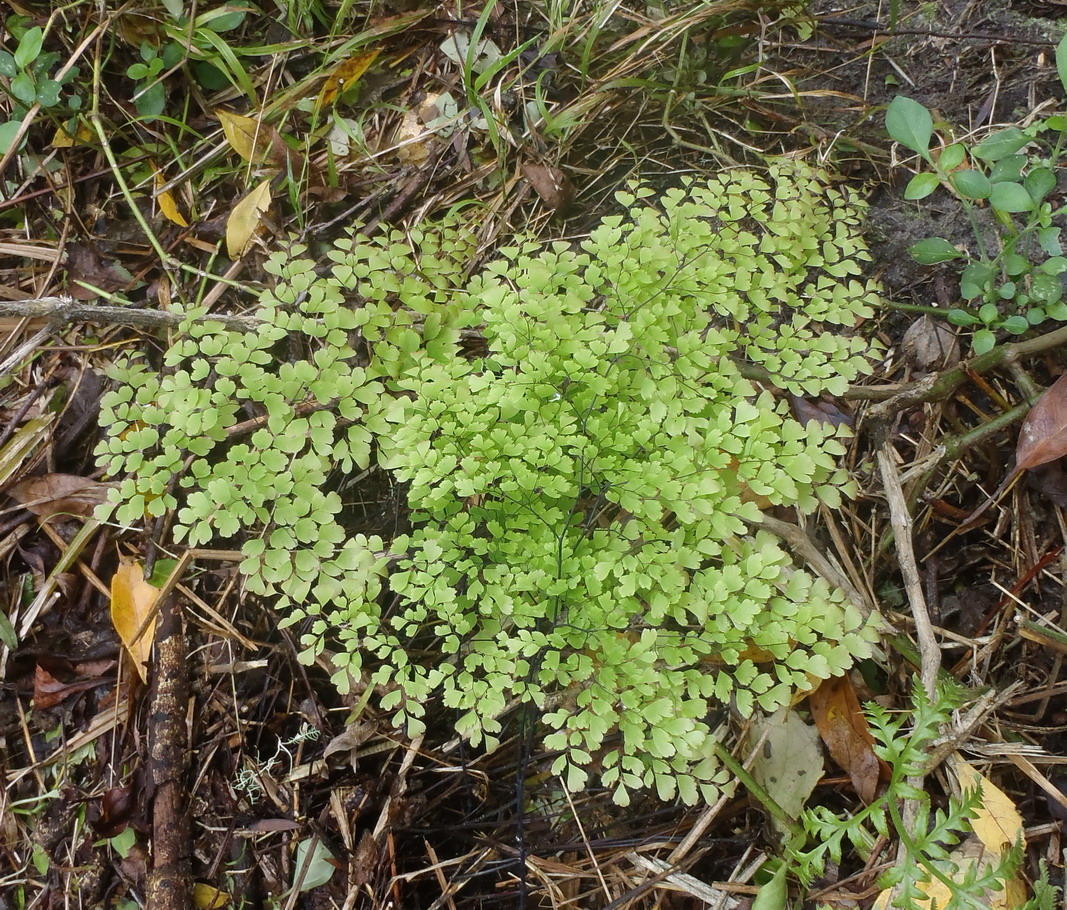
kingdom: Plantae
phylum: Tracheophyta
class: Polypodiopsida
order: Polypodiales
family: Pteridaceae
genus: Adiantum
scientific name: Adiantum capillus-veneris
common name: Maidenhair fern
